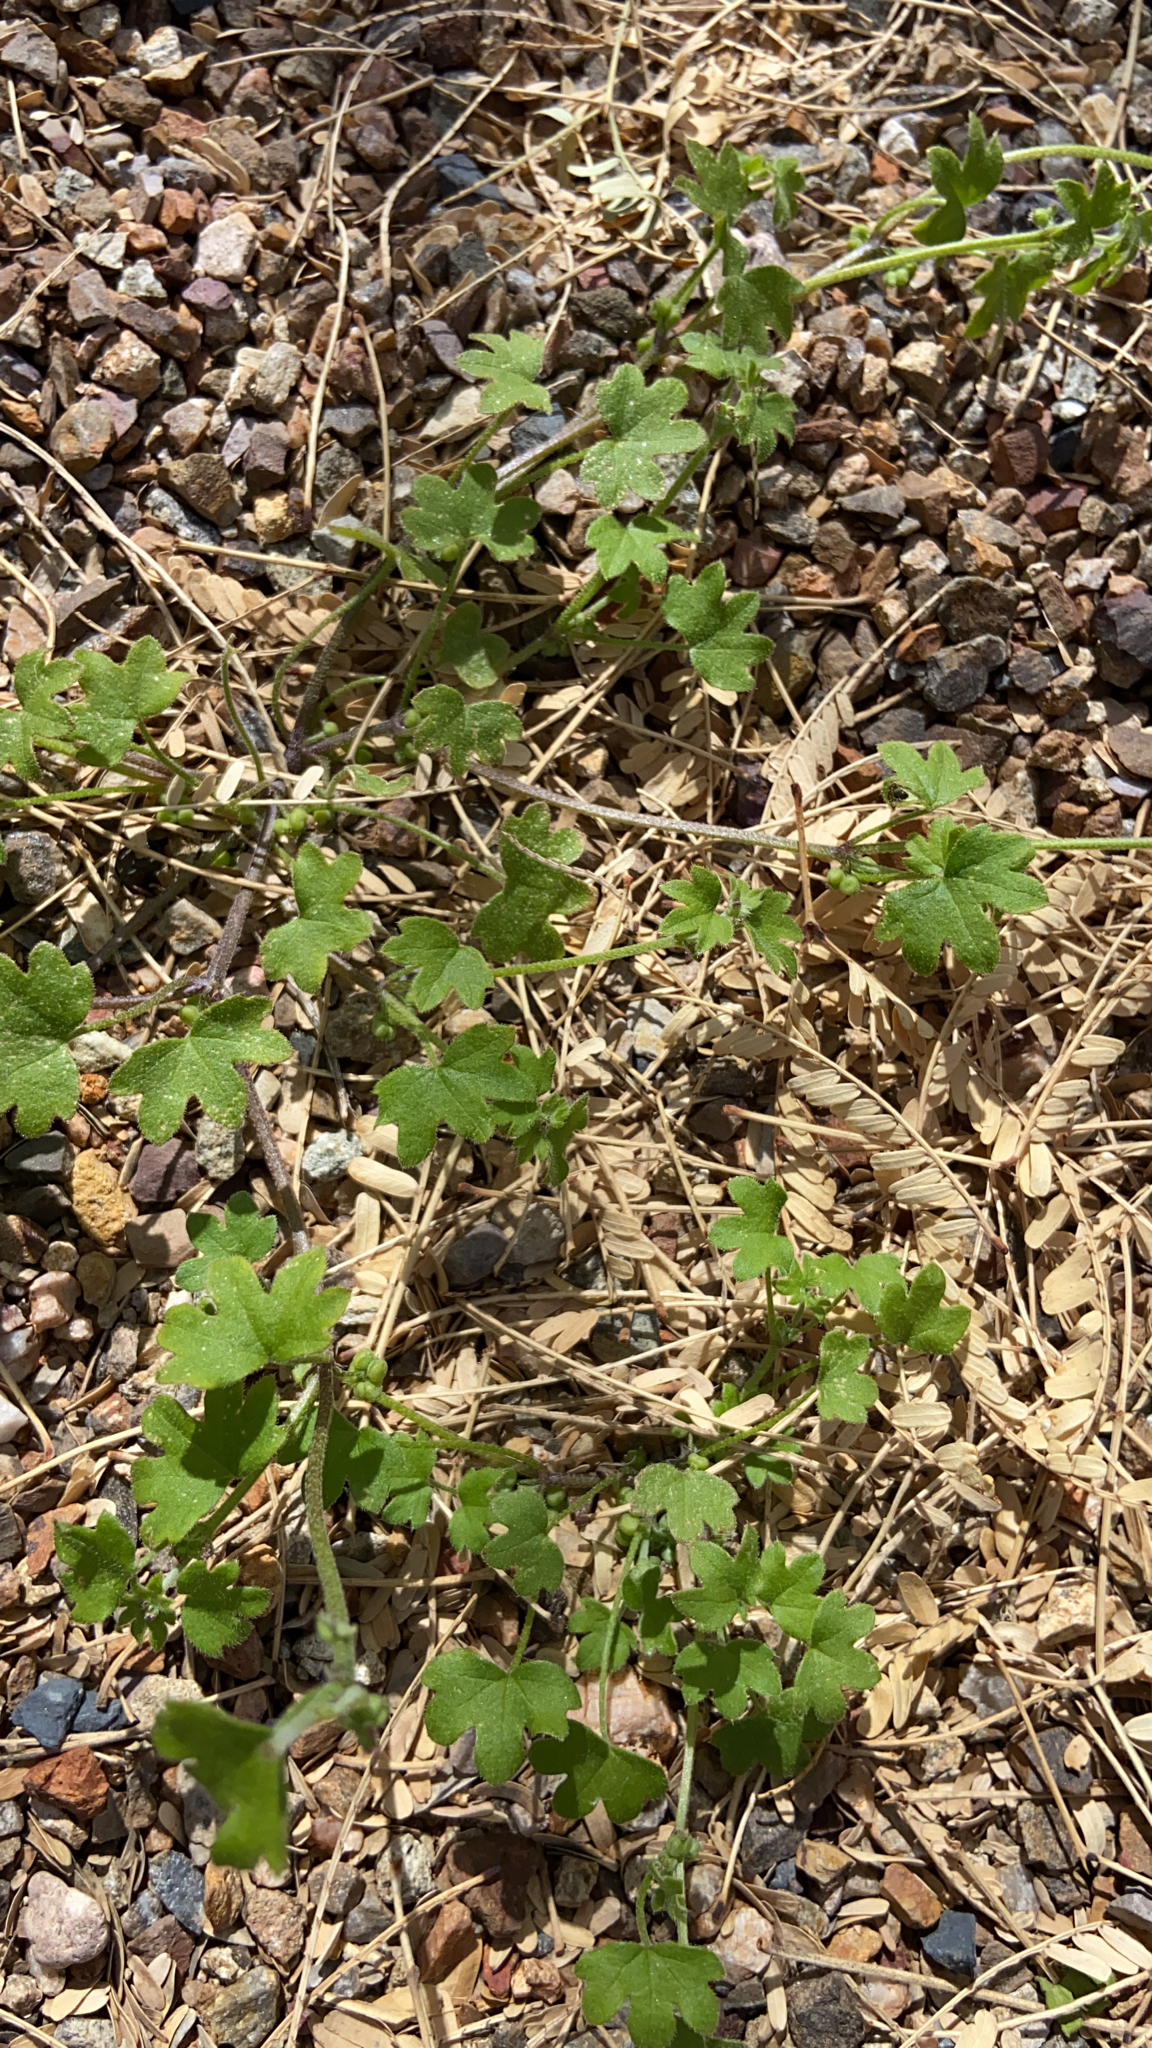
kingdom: Plantae
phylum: Tracheophyta
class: Magnoliopsida
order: Apiales
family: Apiaceae
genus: Bowlesia
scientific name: Bowlesia incana
